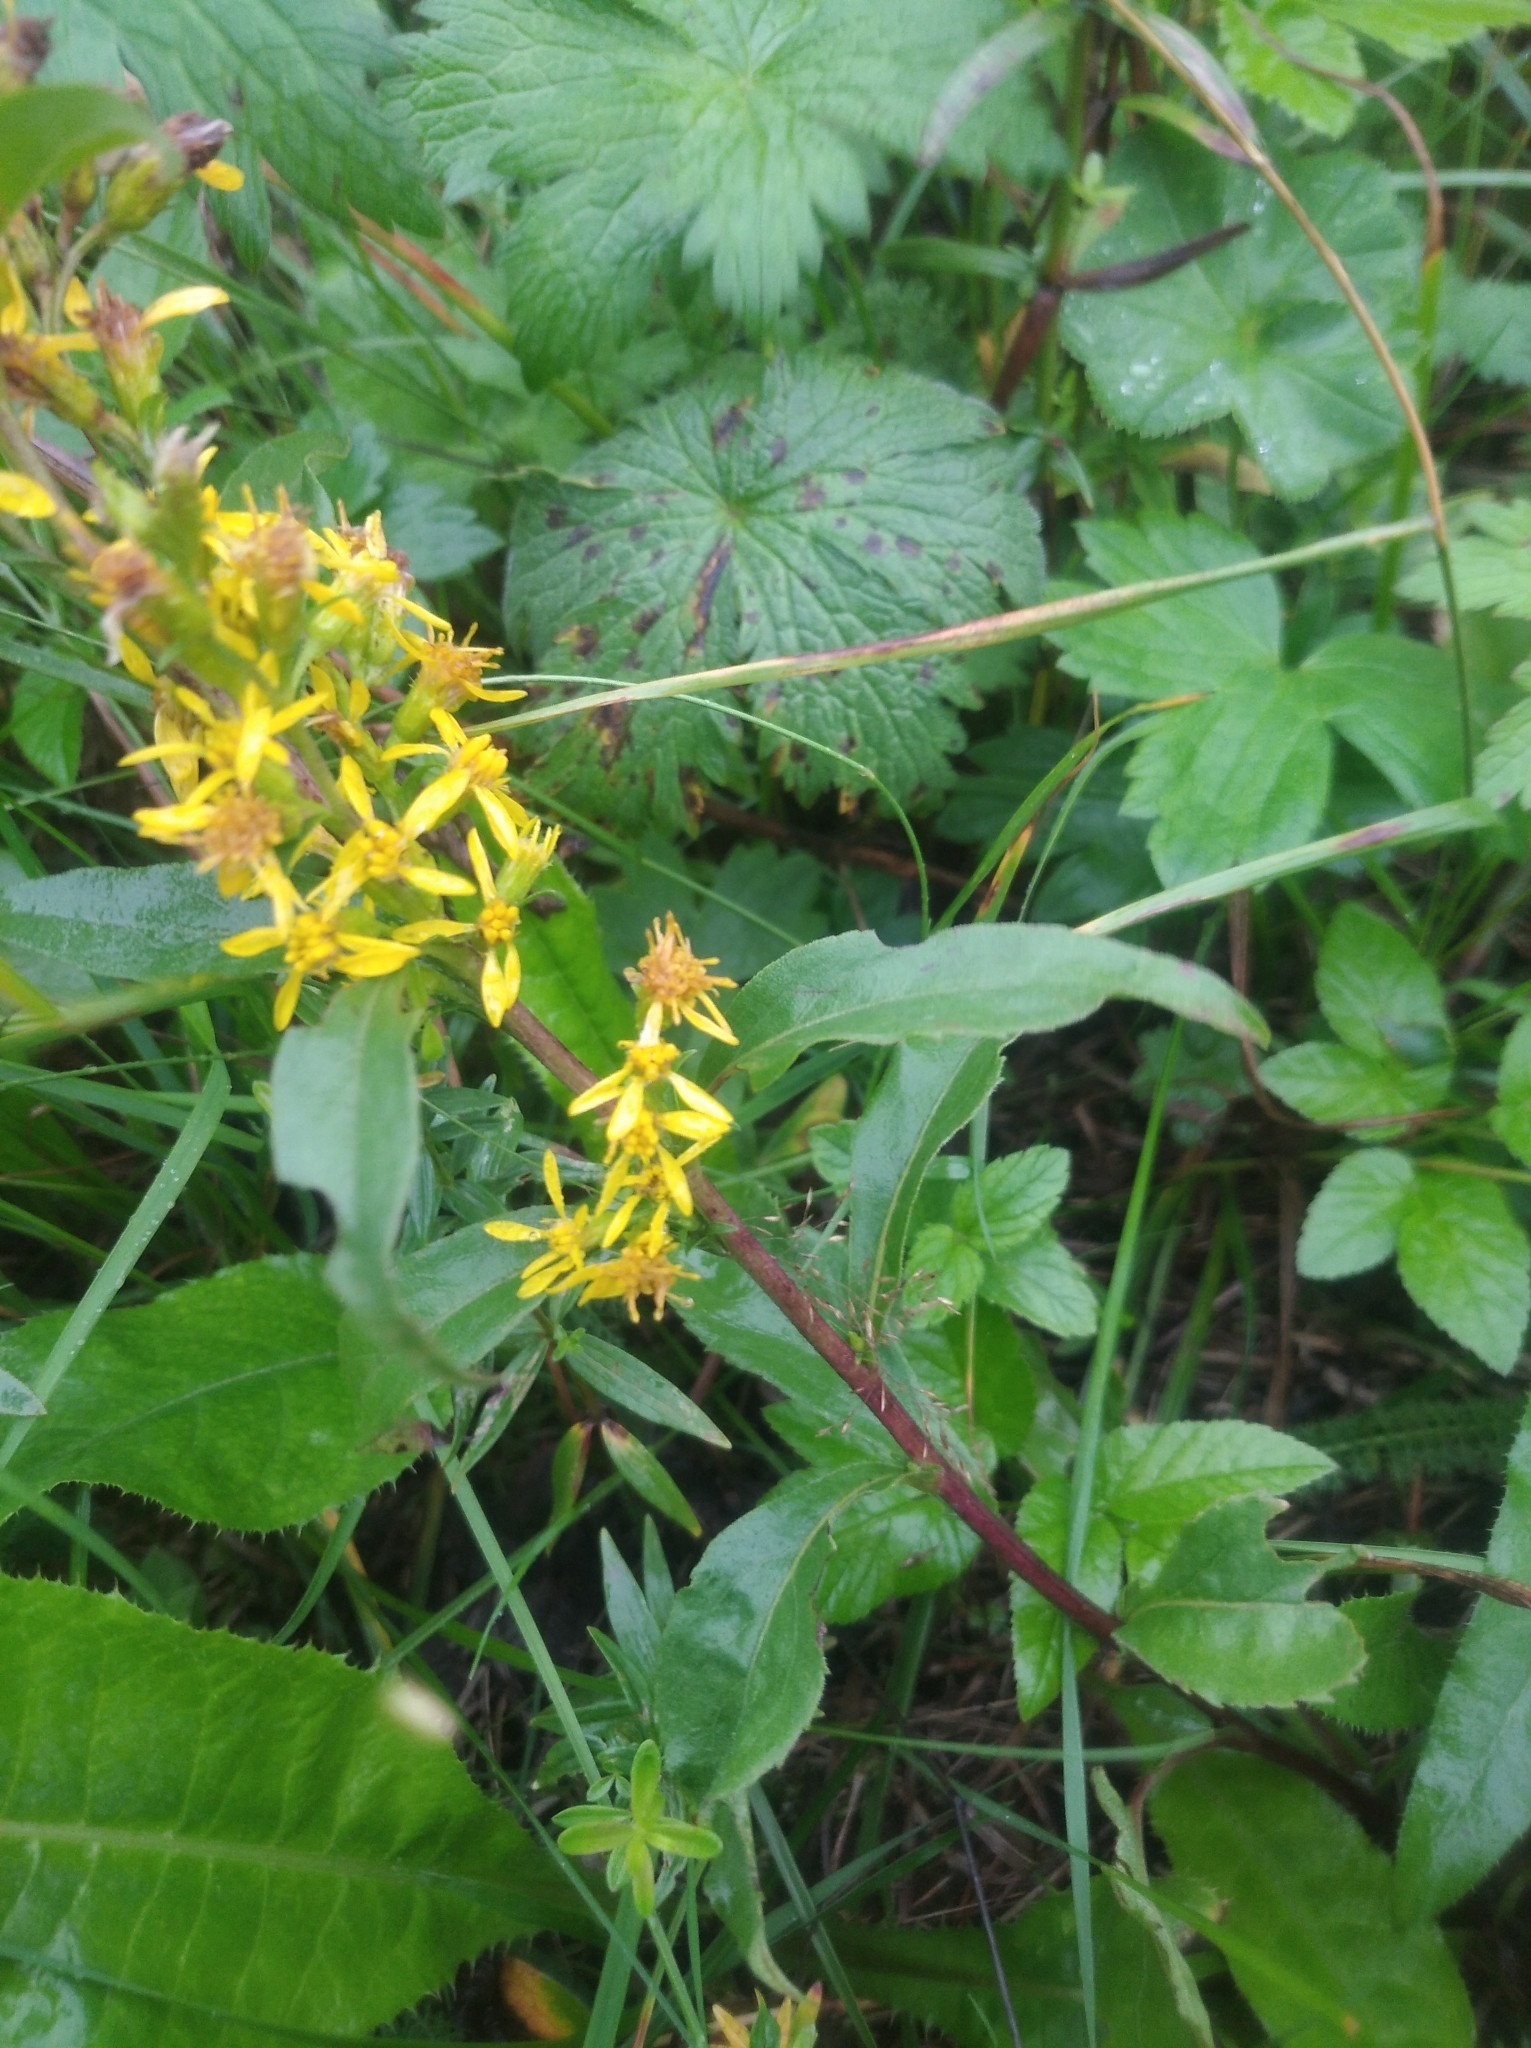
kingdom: Plantae
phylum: Tracheophyta
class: Magnoliopsida
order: Asterales
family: Asteraceae
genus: Solidago
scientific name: Solidago virgaurea
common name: Goldenrod
